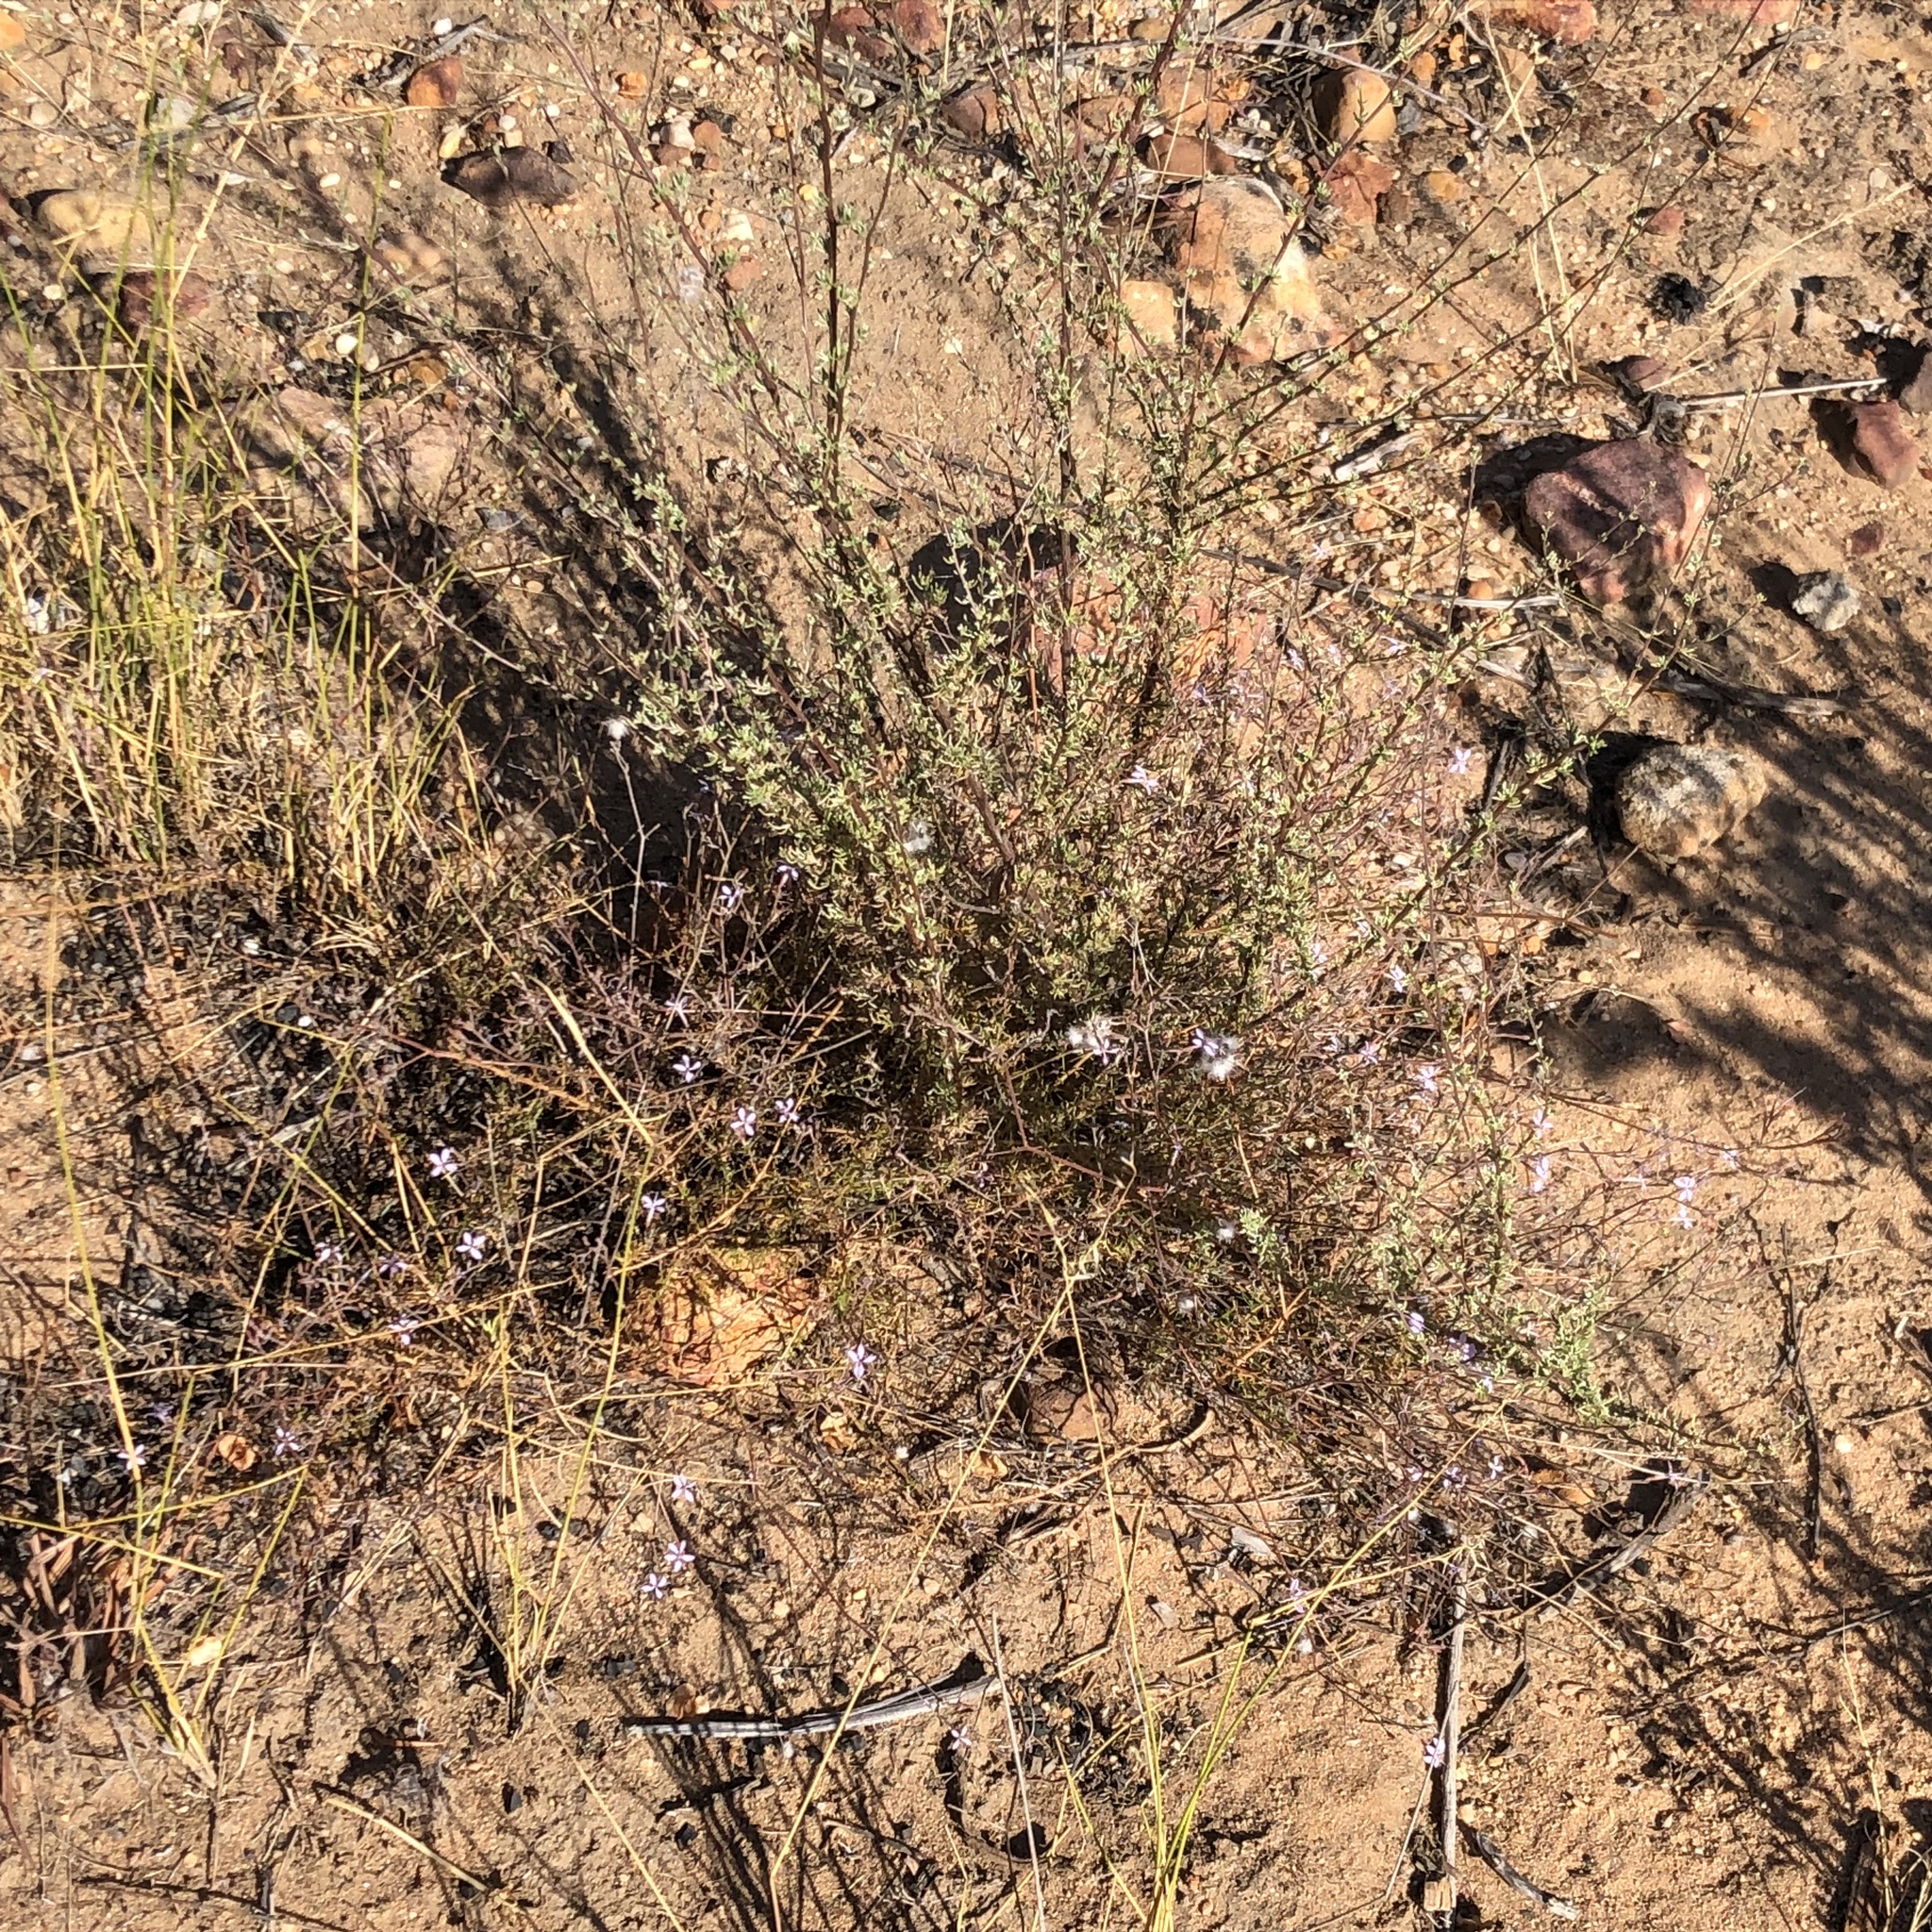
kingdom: Plantae
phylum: Tracheophyta
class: Magnoliopsida
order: Asterales
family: Campanulaceae
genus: Prismatocarpus
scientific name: Prismatocarpus diffusus
